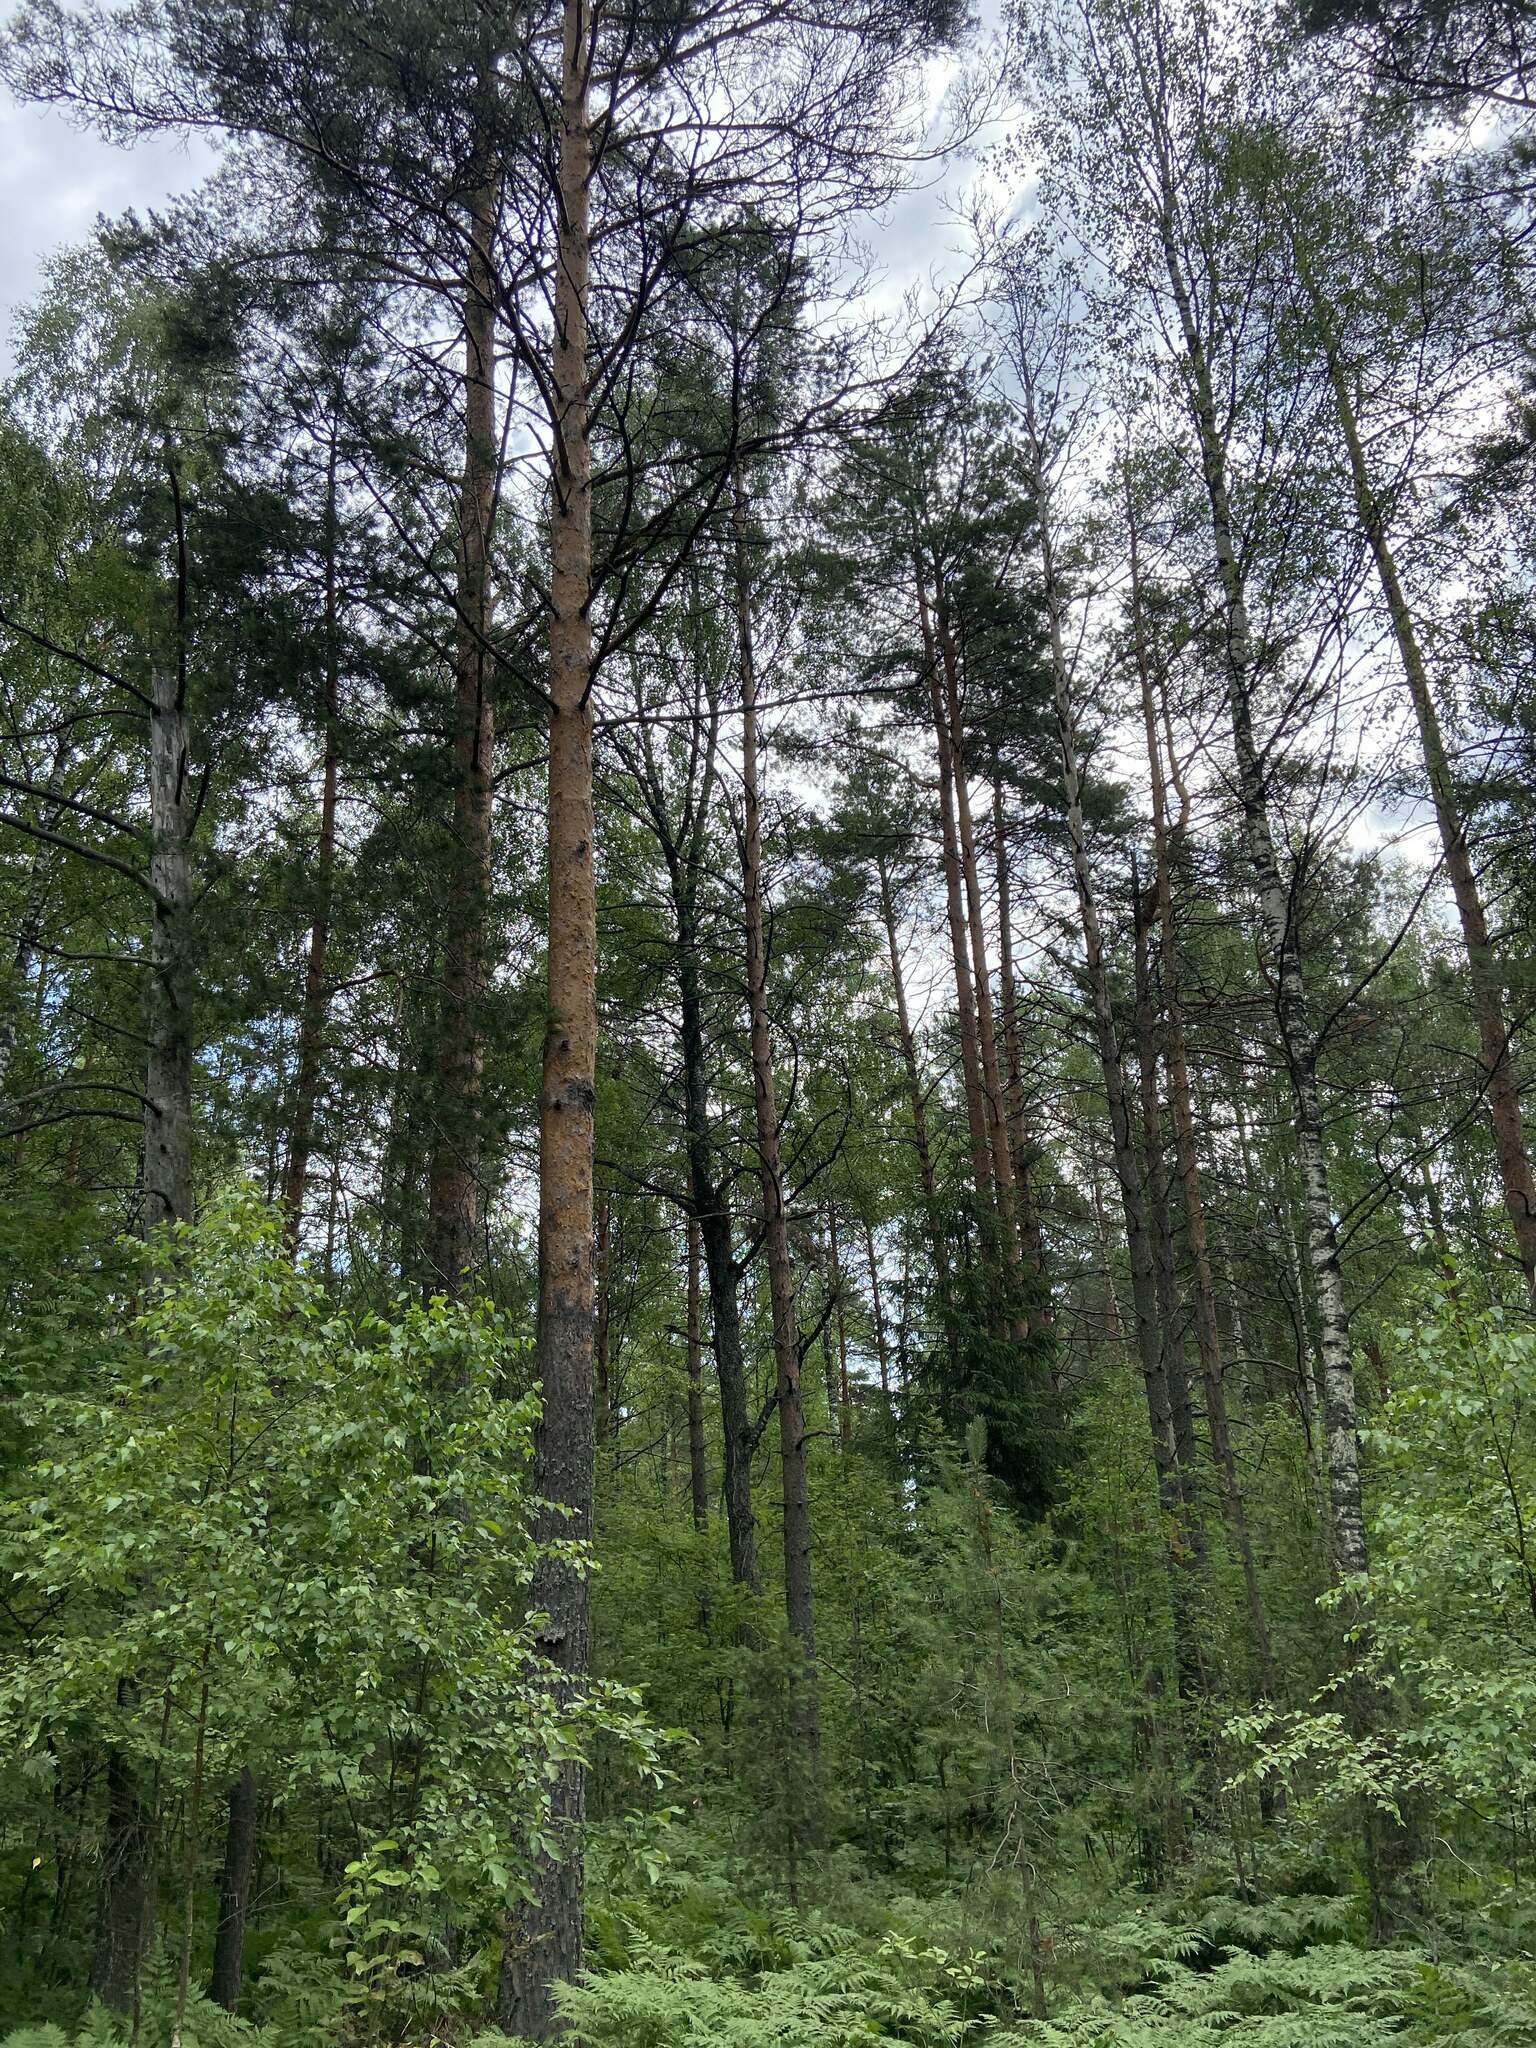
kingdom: Plantae
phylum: Tracheophyta
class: Pinopsida
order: Pinales
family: Pinaceae
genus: Pinus
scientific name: Pinus sylvestris
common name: Scots pine
